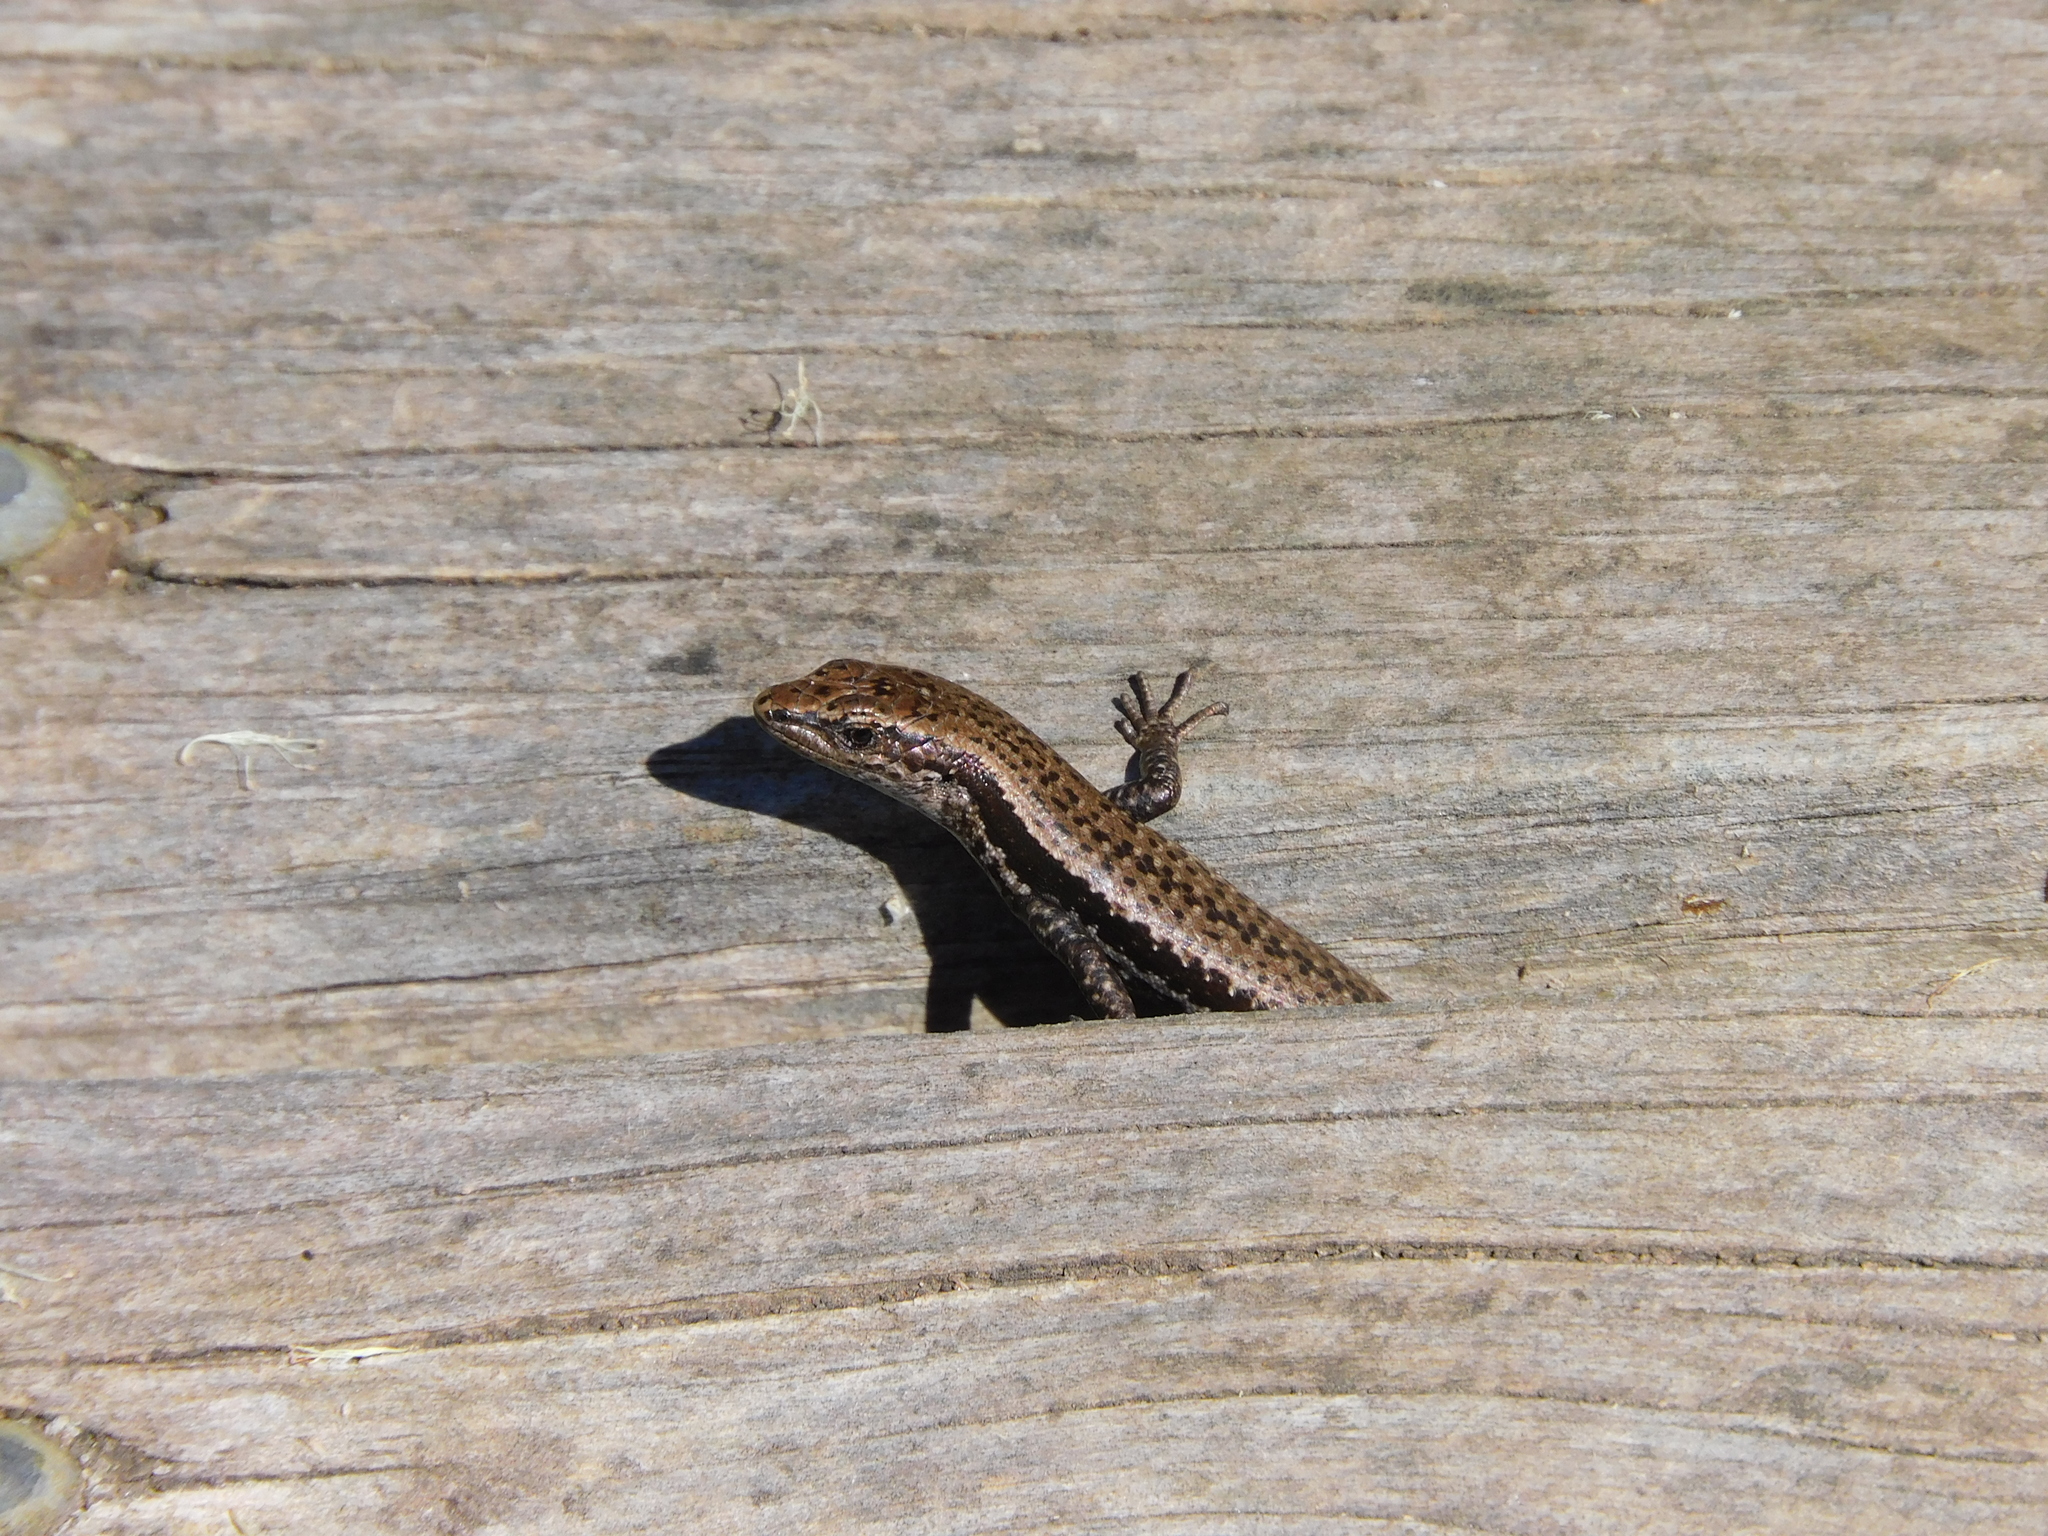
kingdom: Animalia
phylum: Chordata
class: Squamata
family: Scincidae
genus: Carinascincus
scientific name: Carinascincus pretiosus
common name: Agile cool-skink
